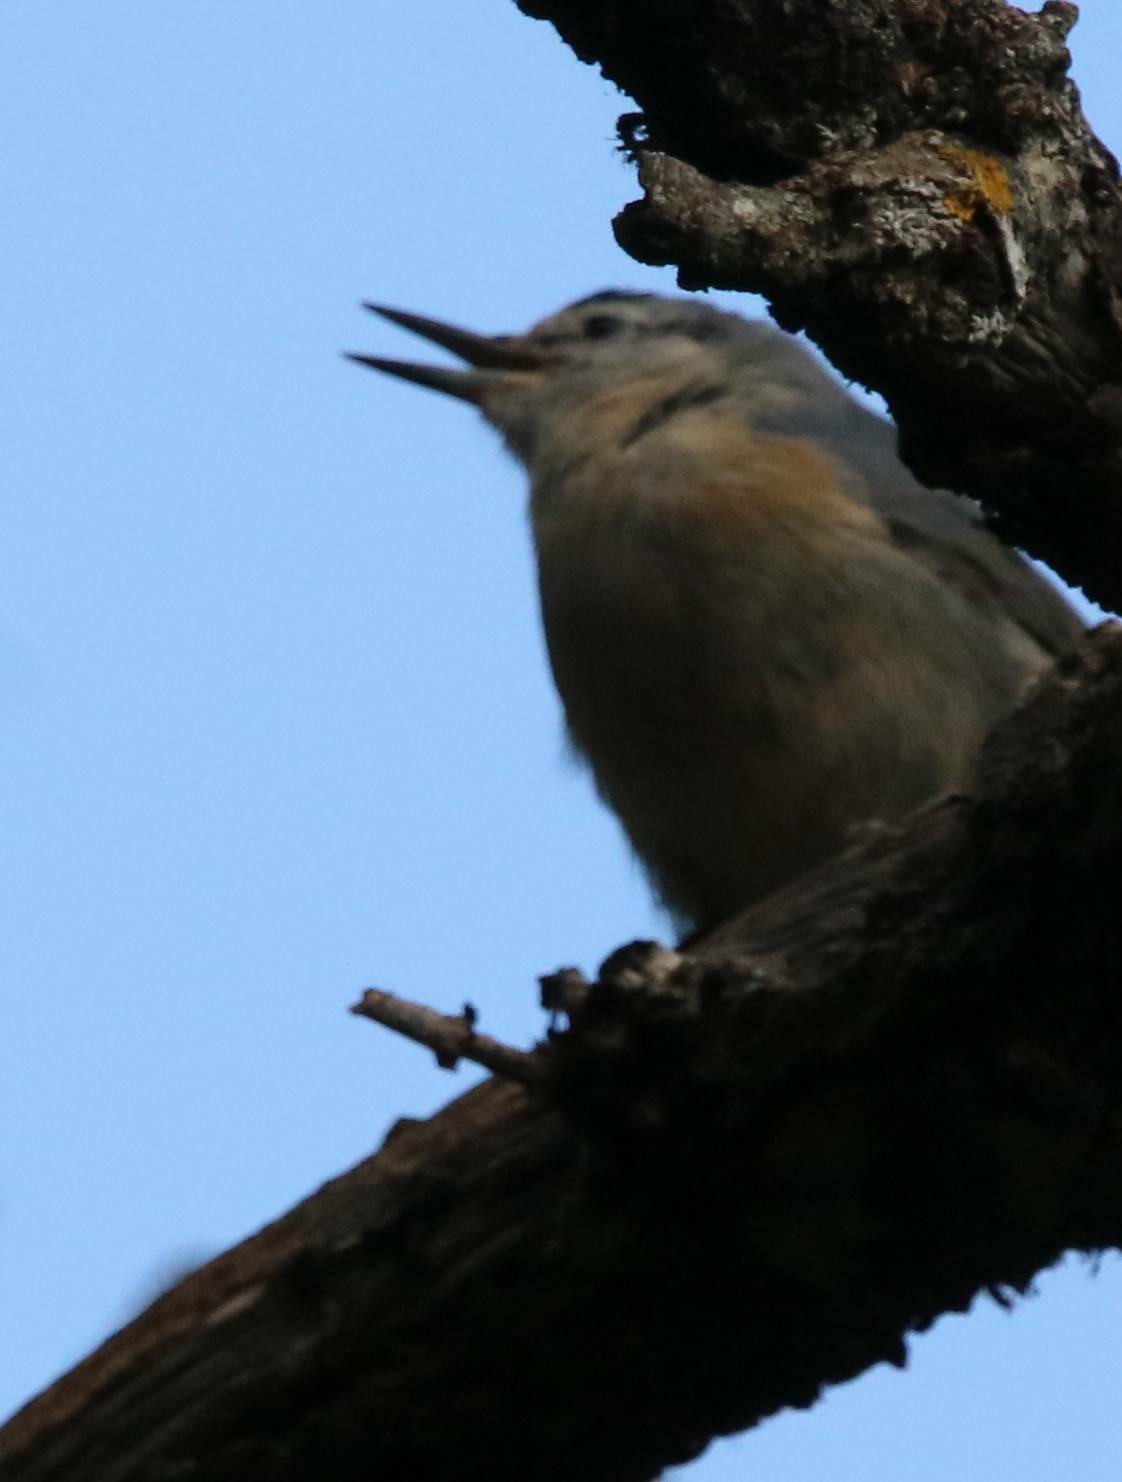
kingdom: Animalia
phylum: Chordata
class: Aves
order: Passeriformes
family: Sittidae
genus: Sitta
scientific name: Sitta ledanti
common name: Algerian nuthatch
